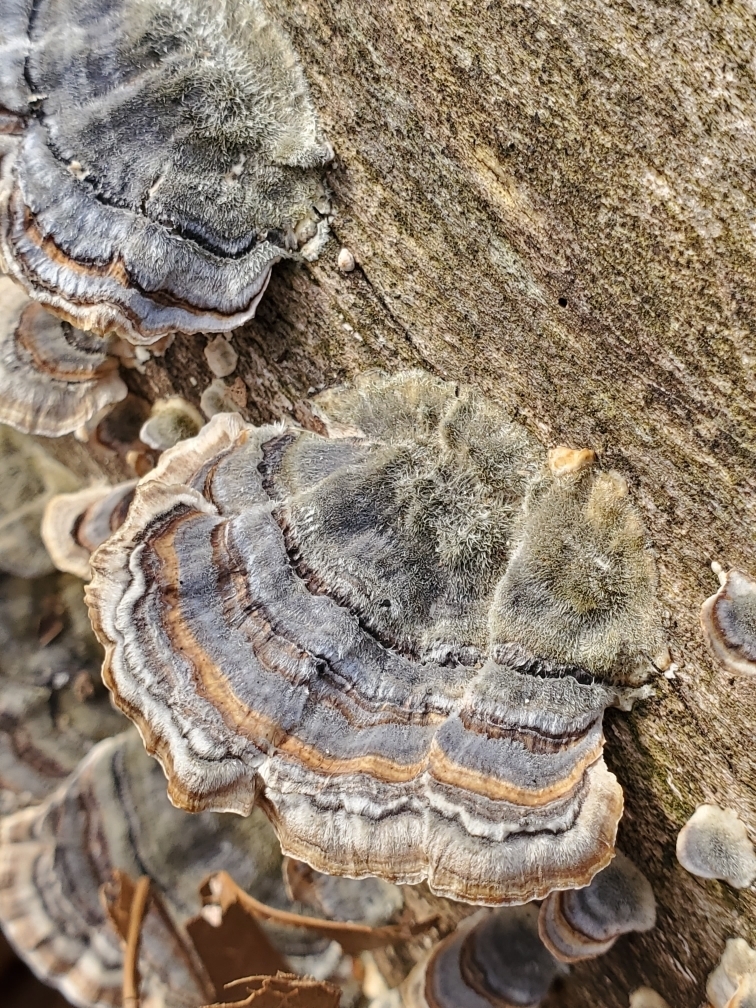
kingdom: Fungi
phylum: Basidiomycota
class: Agaricomycetes
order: Polyporales
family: Polyporaceae
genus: Trametes
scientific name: Trametes versicolor
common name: Turkeytail
